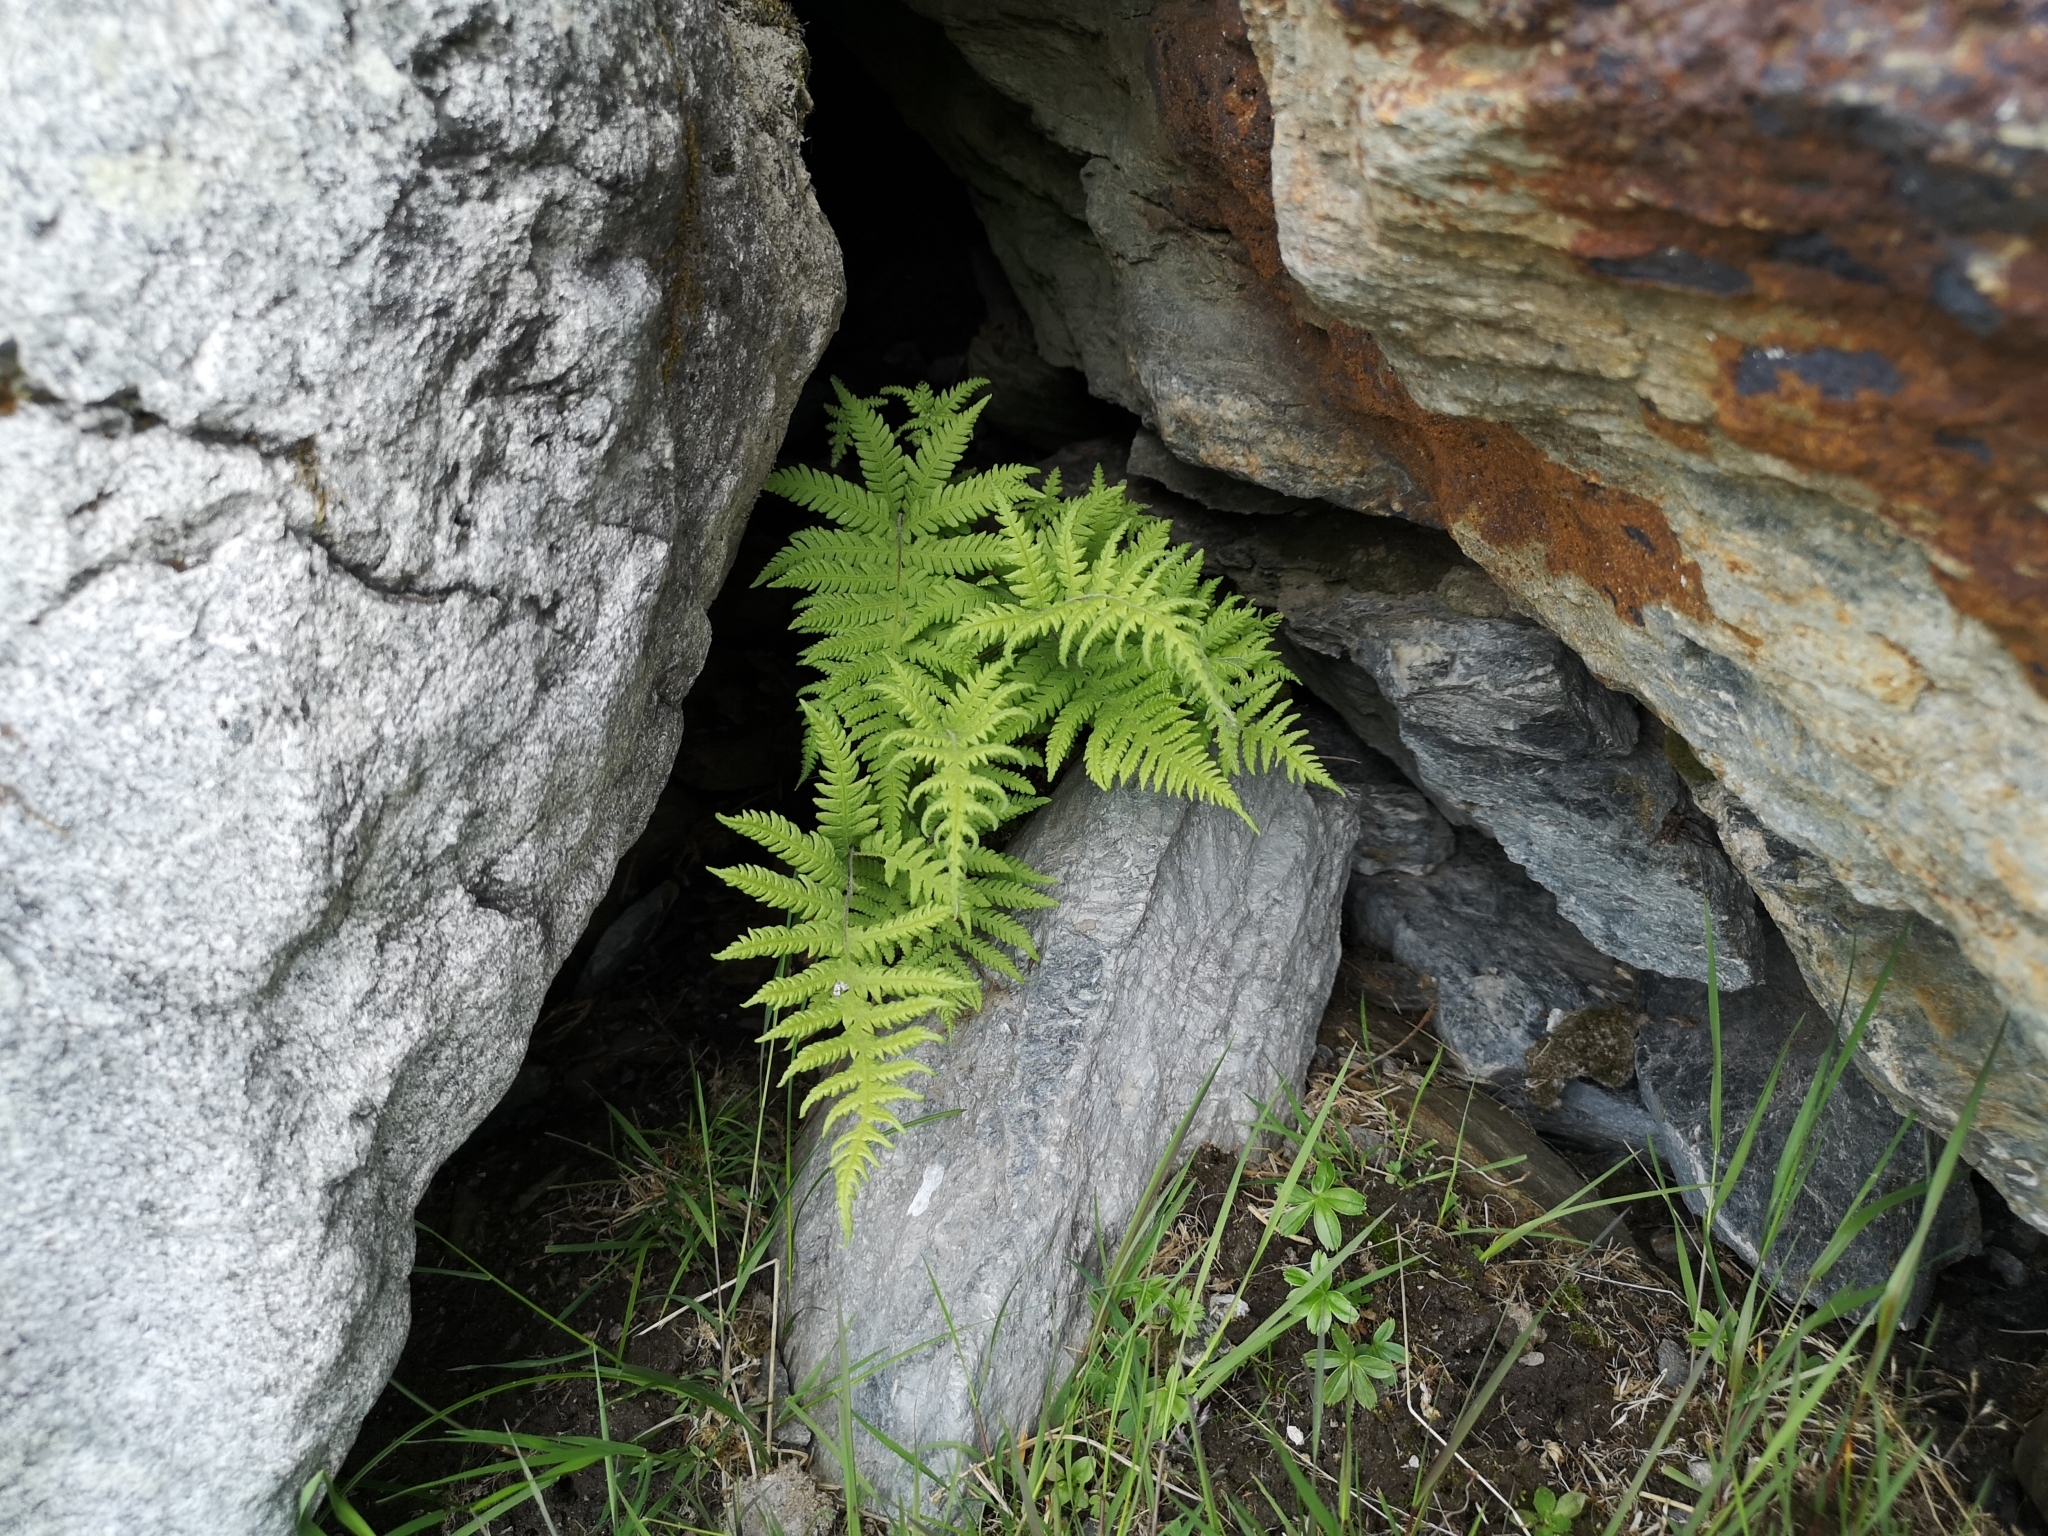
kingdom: Plantae
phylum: Tracheophyta
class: Polypodiopsida
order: Polypodiales
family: Thelypteridaceae
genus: Phegopteris
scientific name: Phegopteris connectilis
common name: Beech fern
